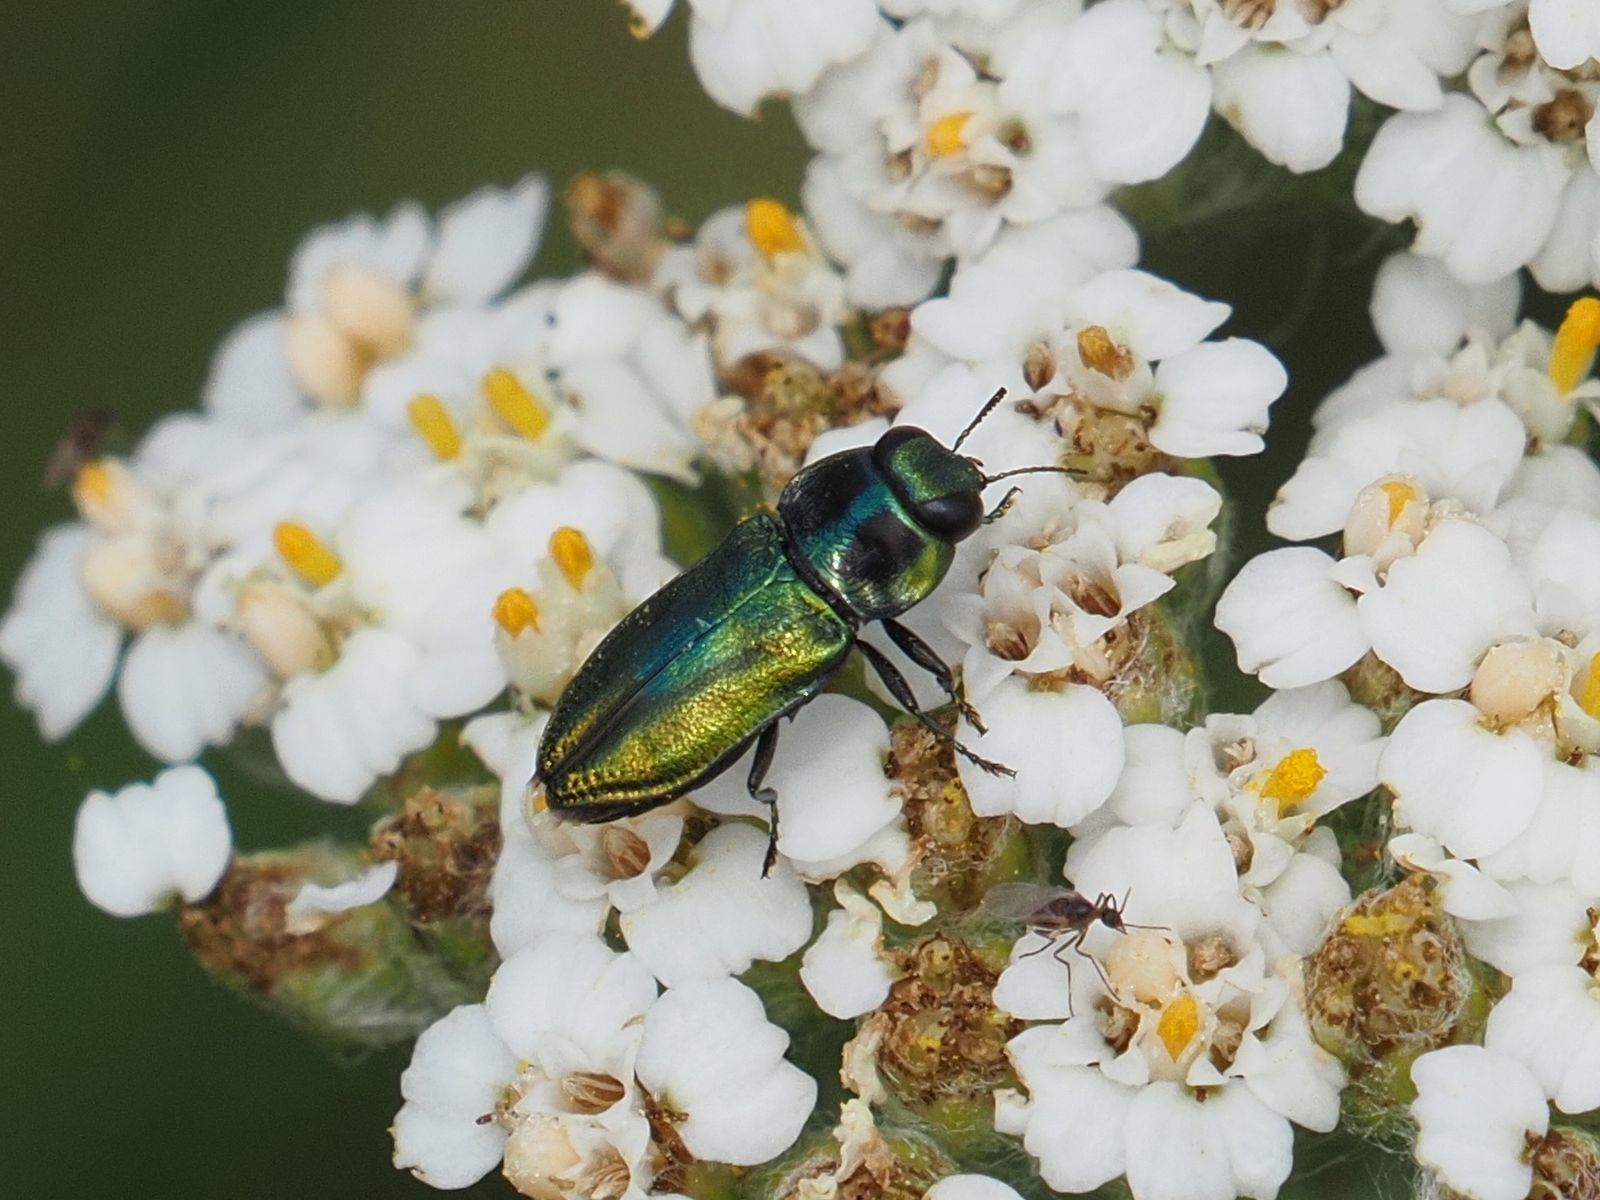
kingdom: Animalia
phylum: Arthropoda
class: Insecta
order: Coleoptera
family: Buprestidae
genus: Anthaxia
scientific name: Anthaxia fulgurans
